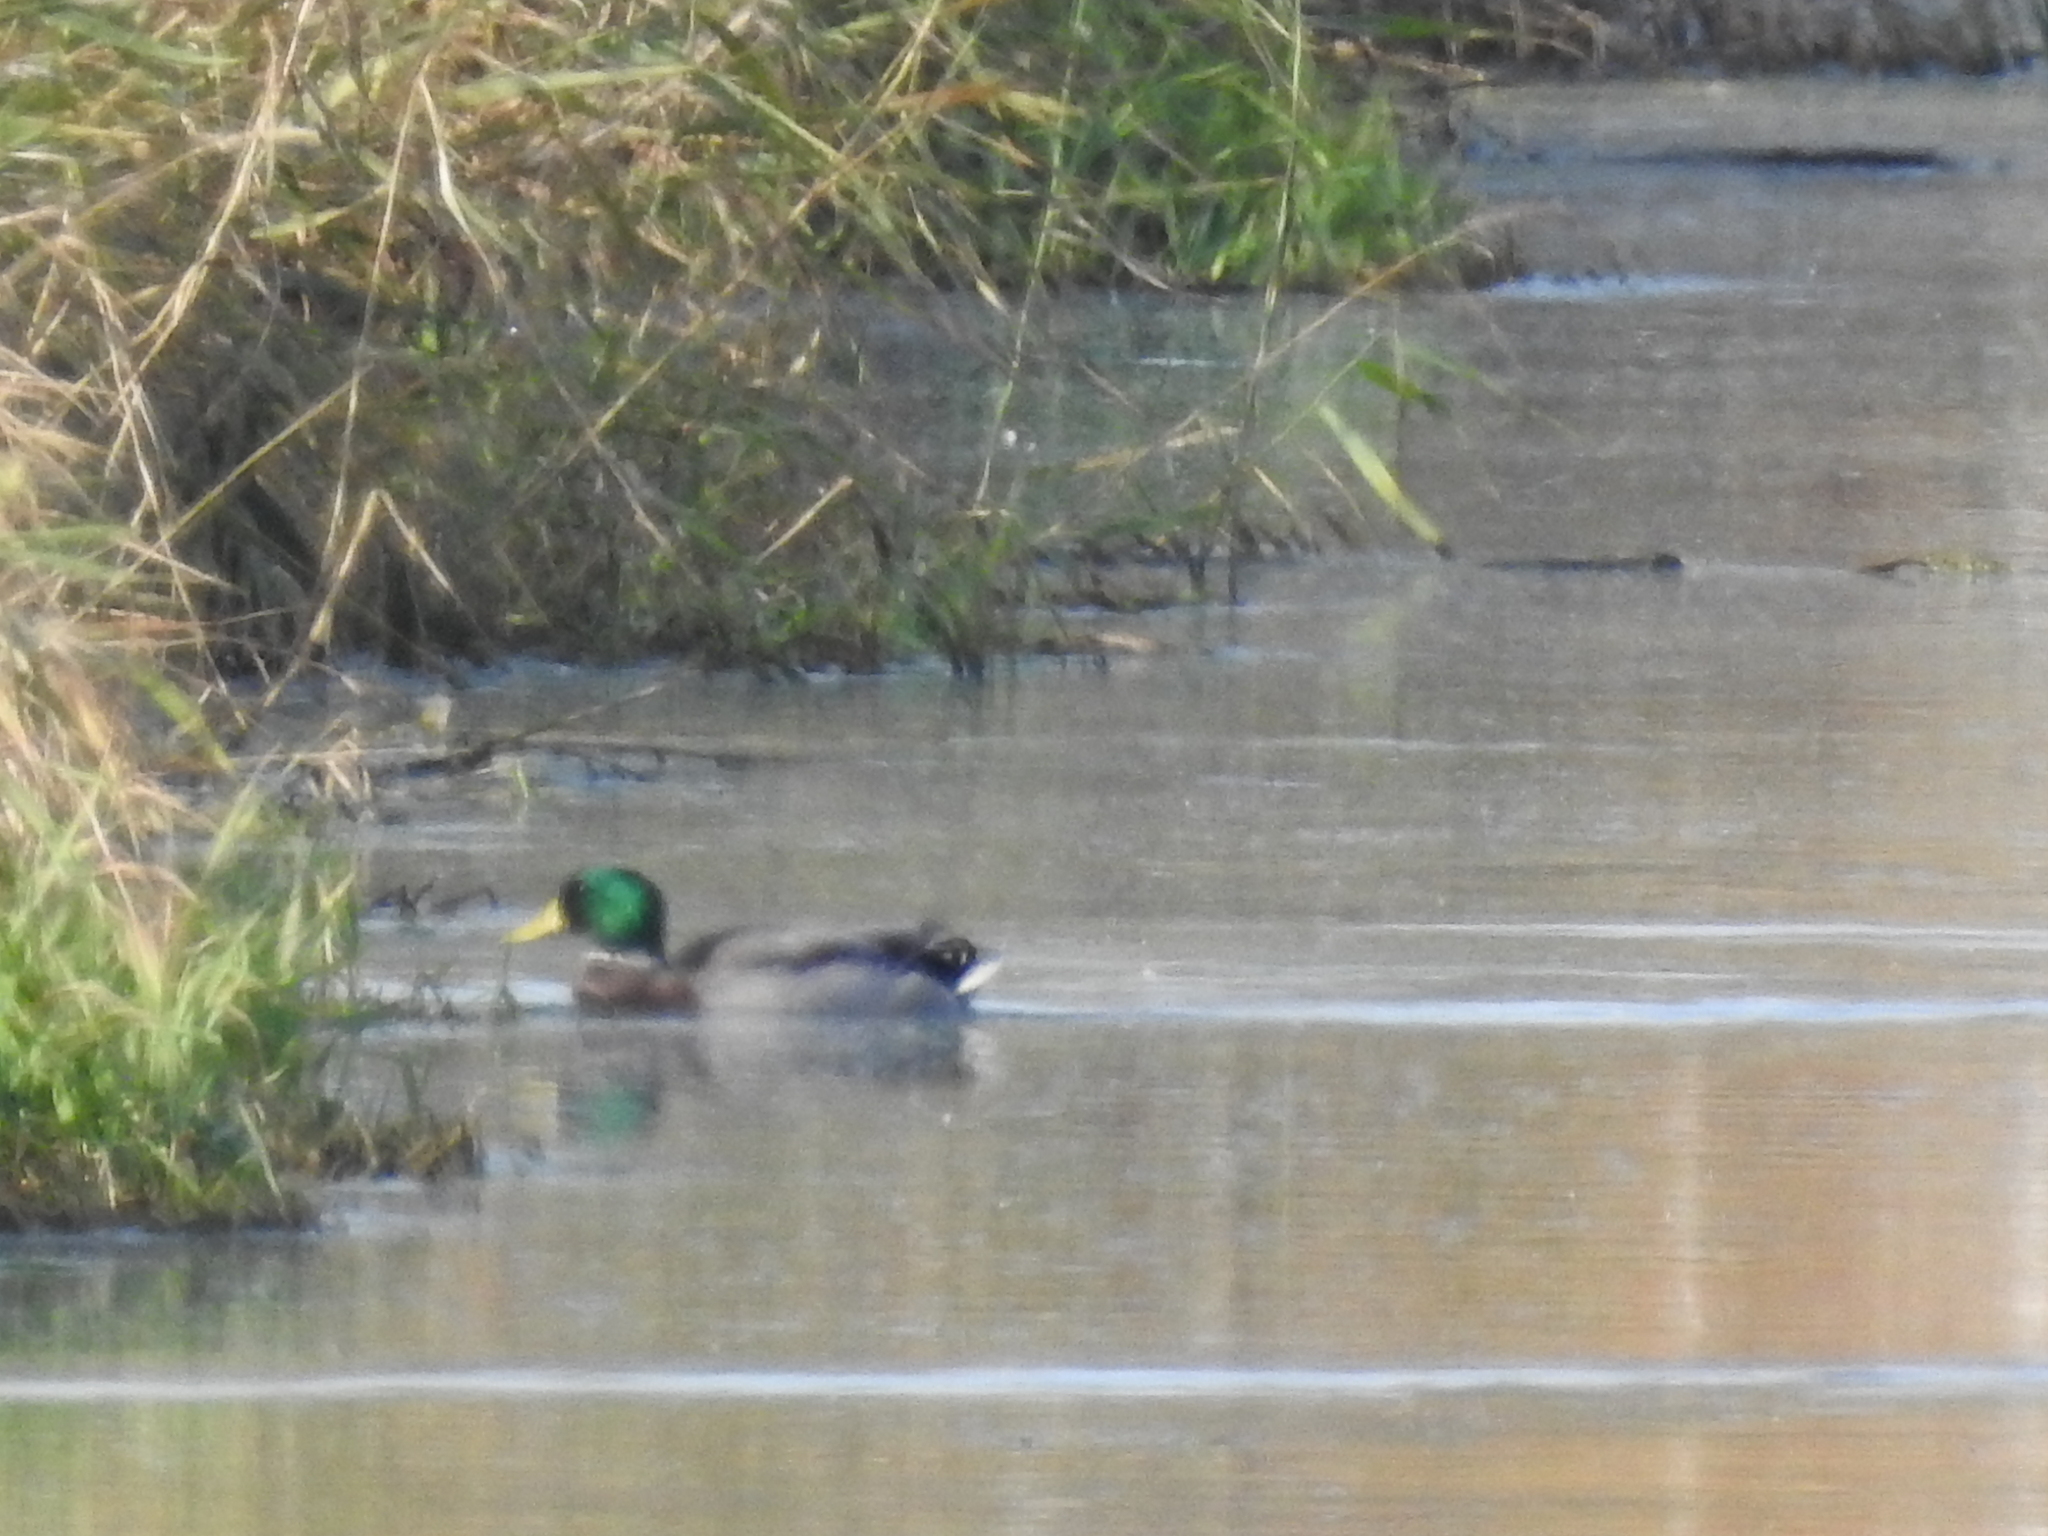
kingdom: Animalia
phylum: Chordata
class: Aves
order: Anseriformes
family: Anatidae
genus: Anas
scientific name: Anas platyrhynchos
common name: Mallard
